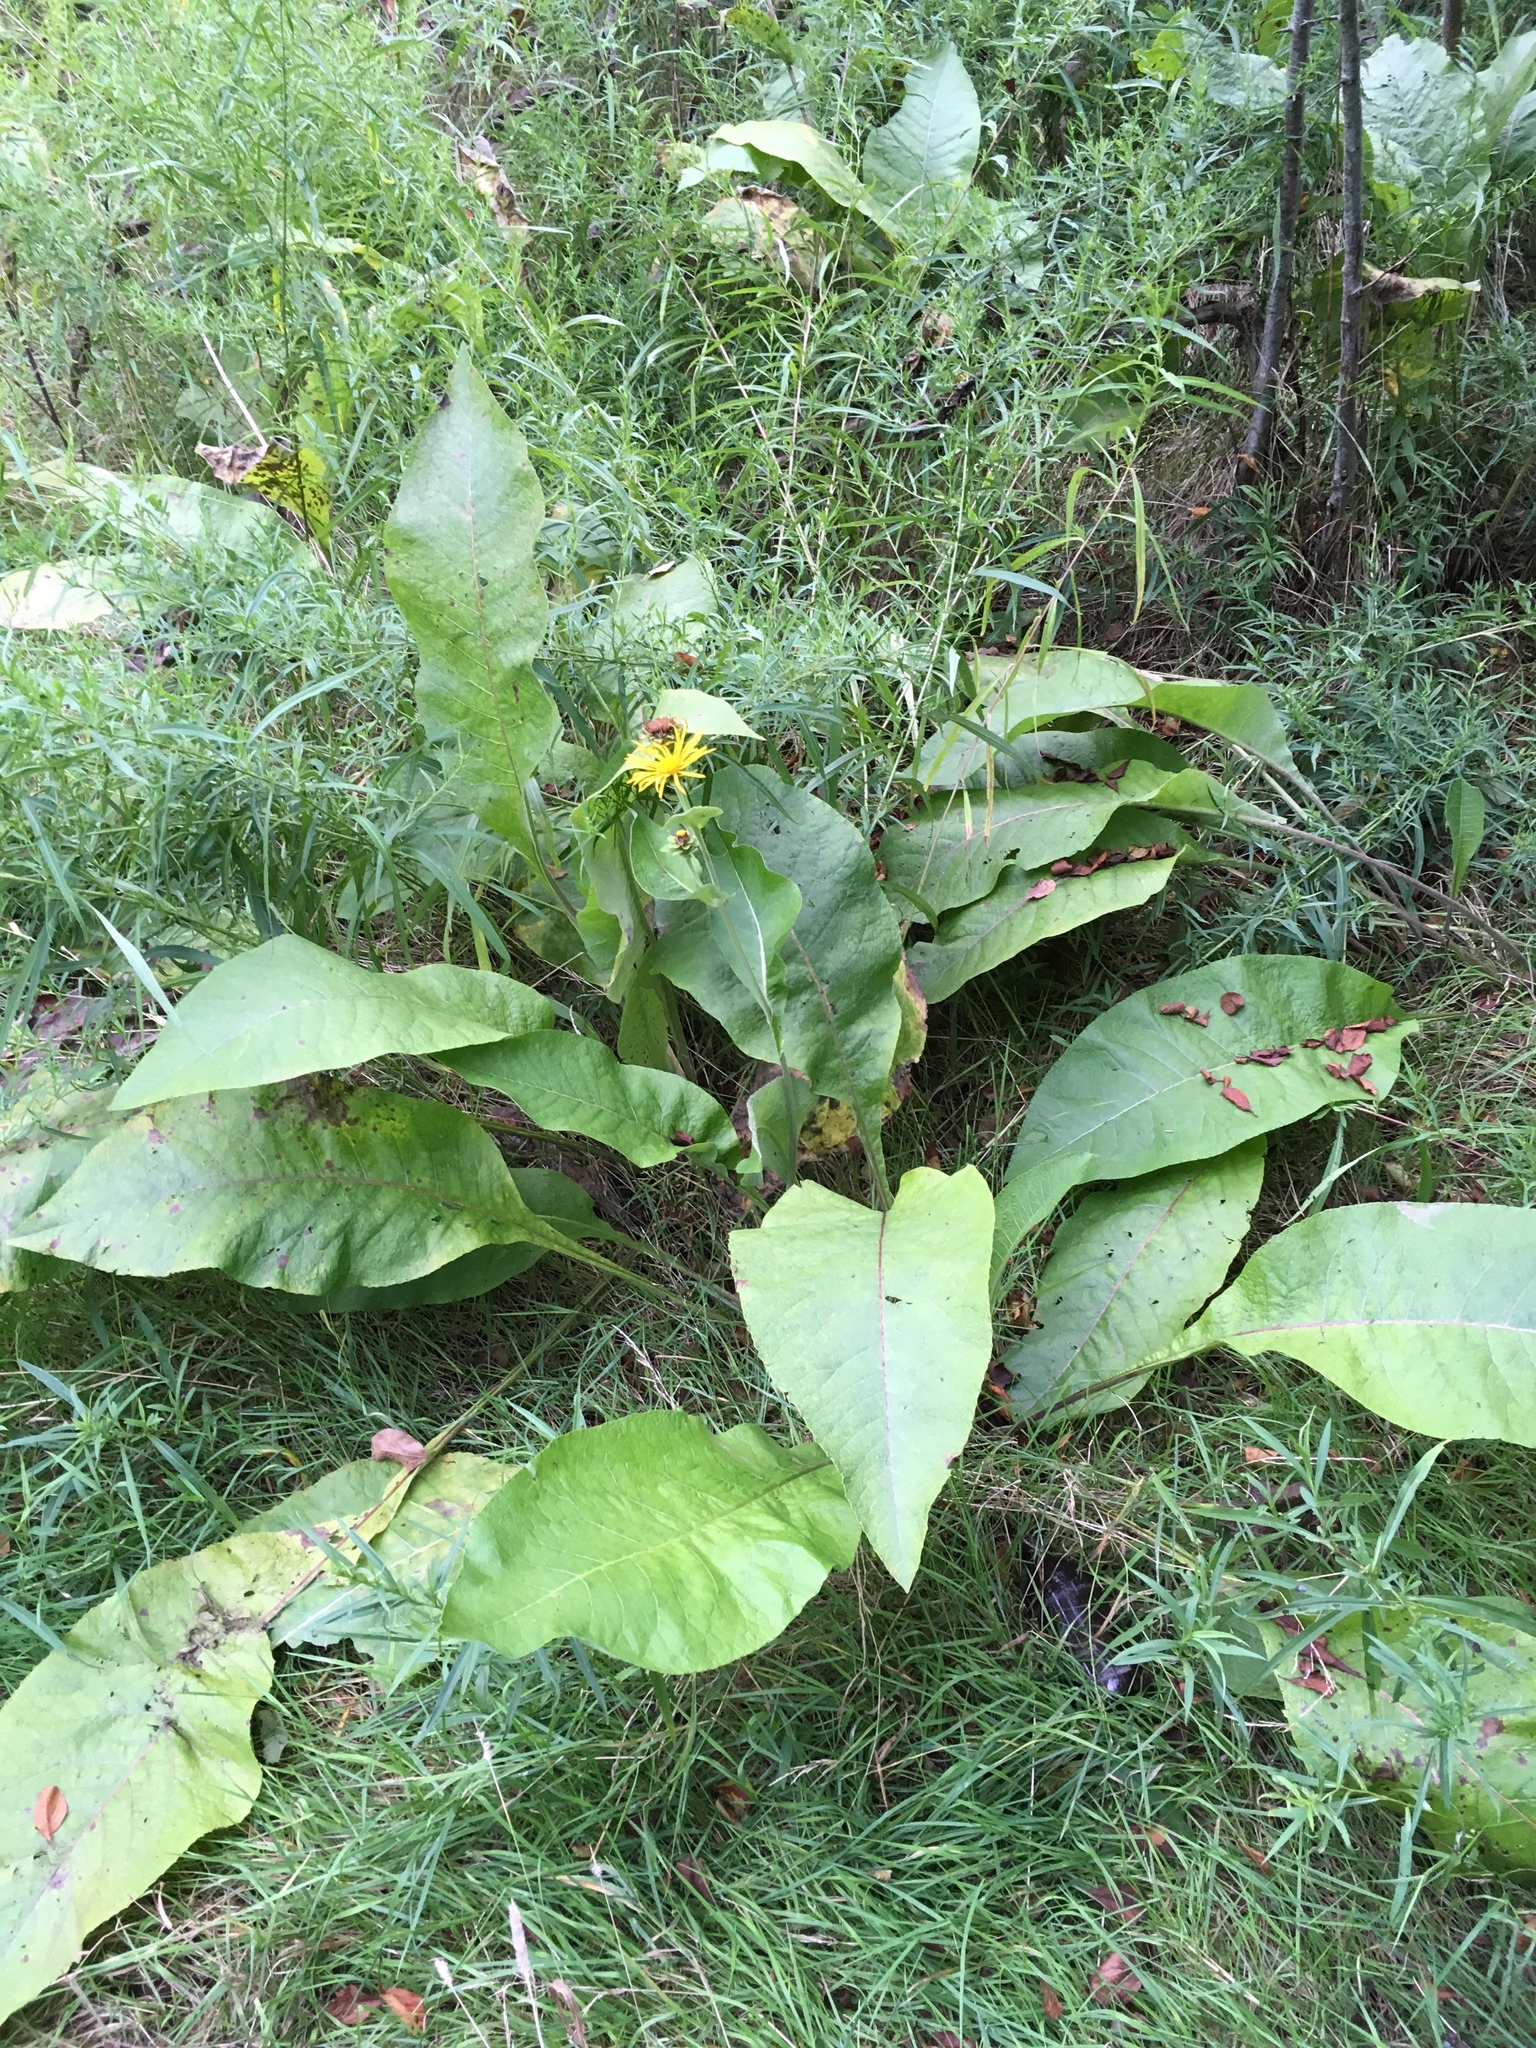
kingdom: Plantae
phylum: Tracheophyta
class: Magnoliopsida
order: Asterales
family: Asteraceae
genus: Inula
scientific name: Inula helenium
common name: Elecampane
